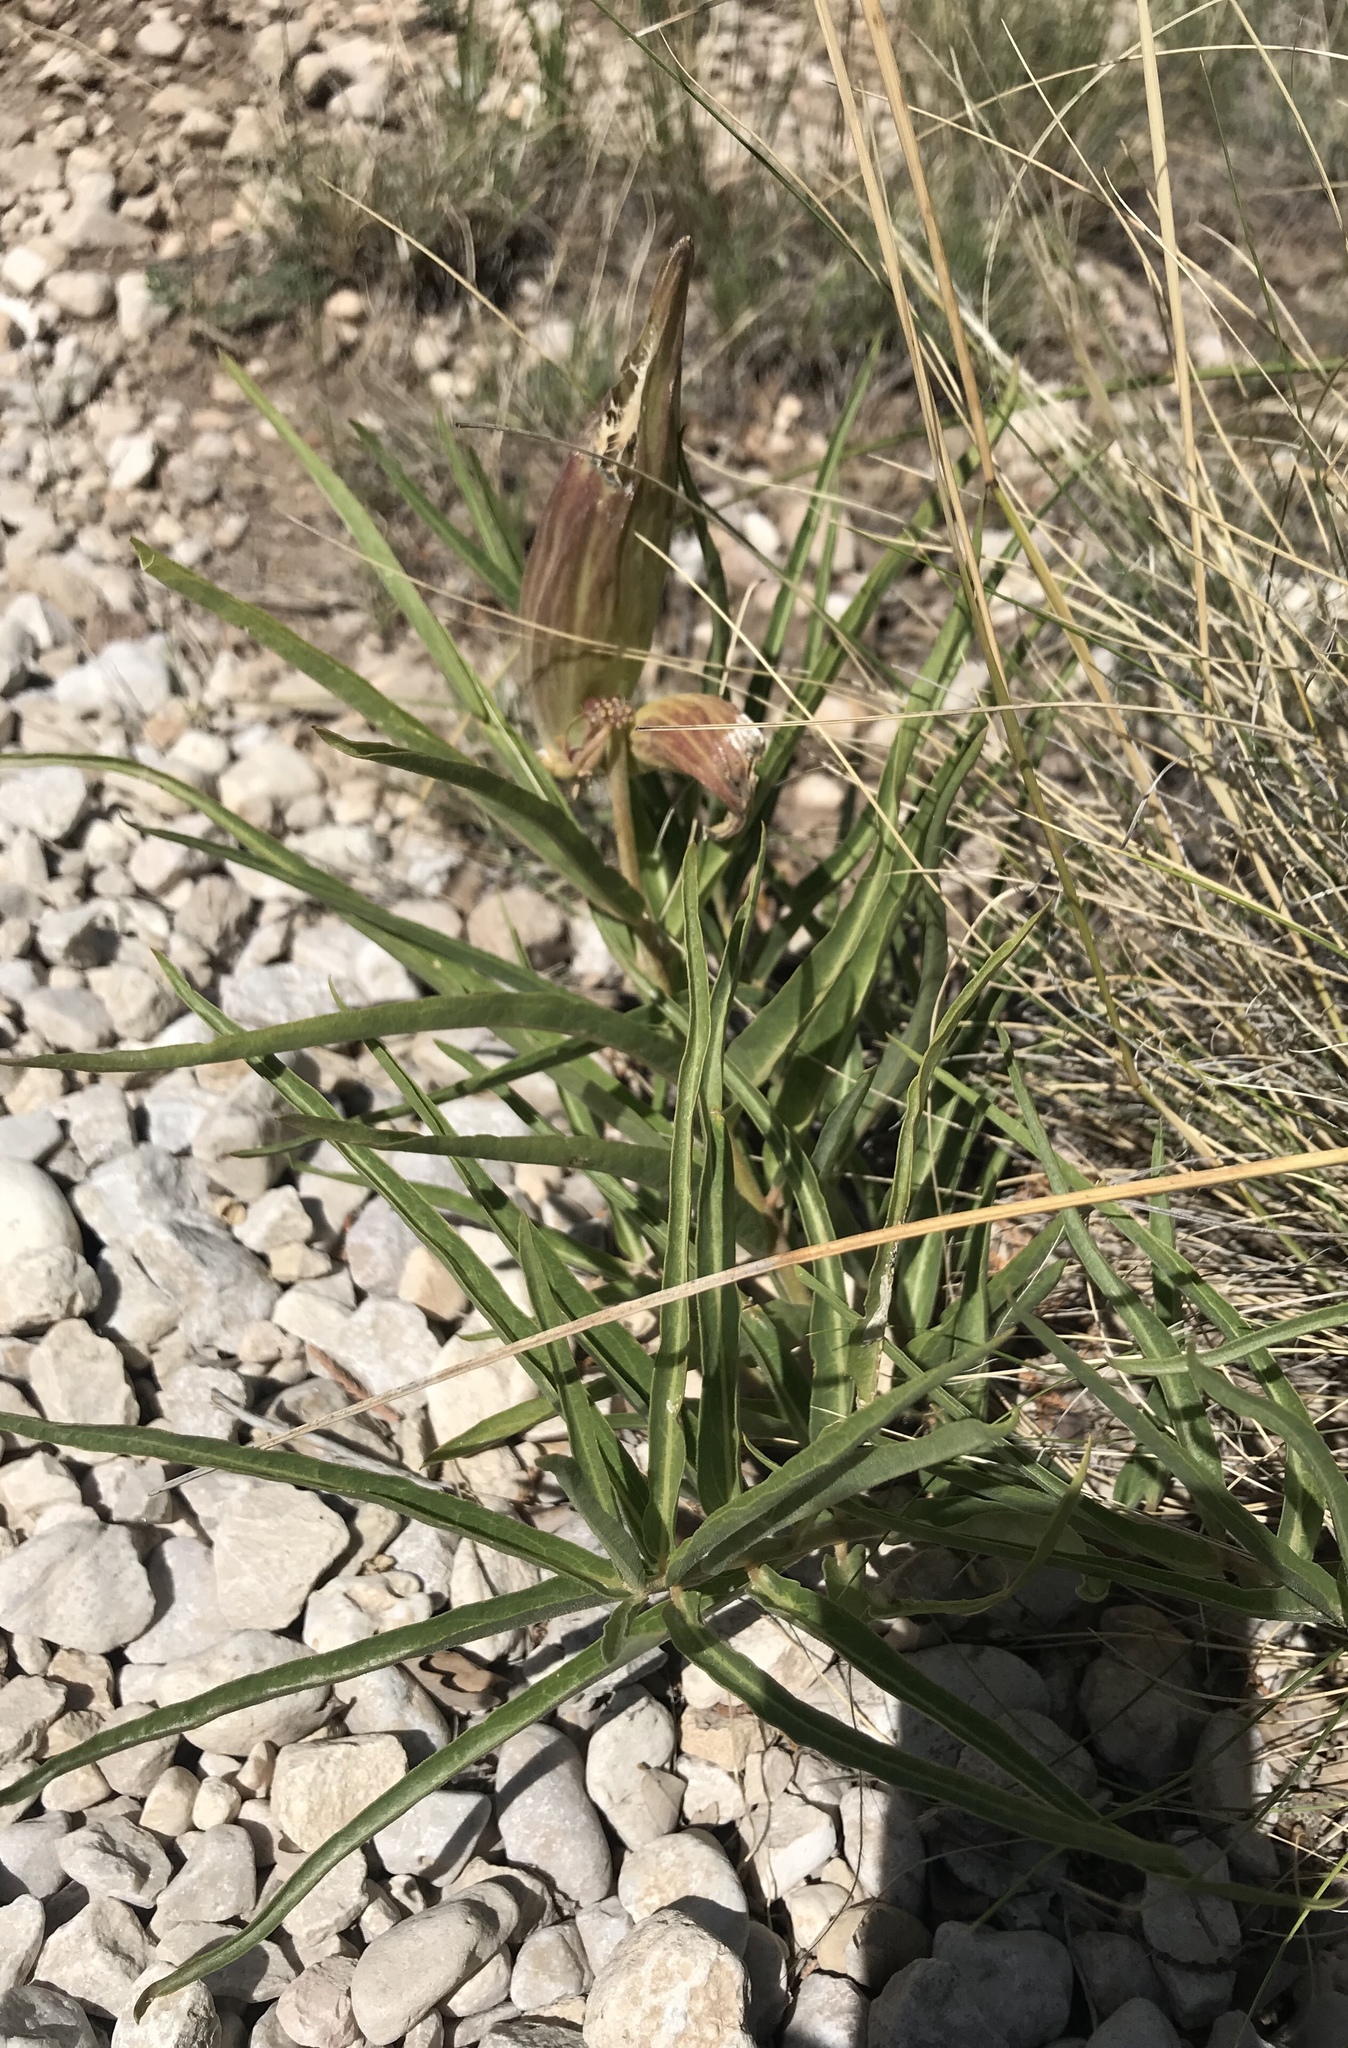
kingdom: Plantae
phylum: Tracheophyta
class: Magnoliopsida
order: Gentianales
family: Apocynaceae
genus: Asclepias
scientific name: Asclepias asperula
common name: Antelope horns
